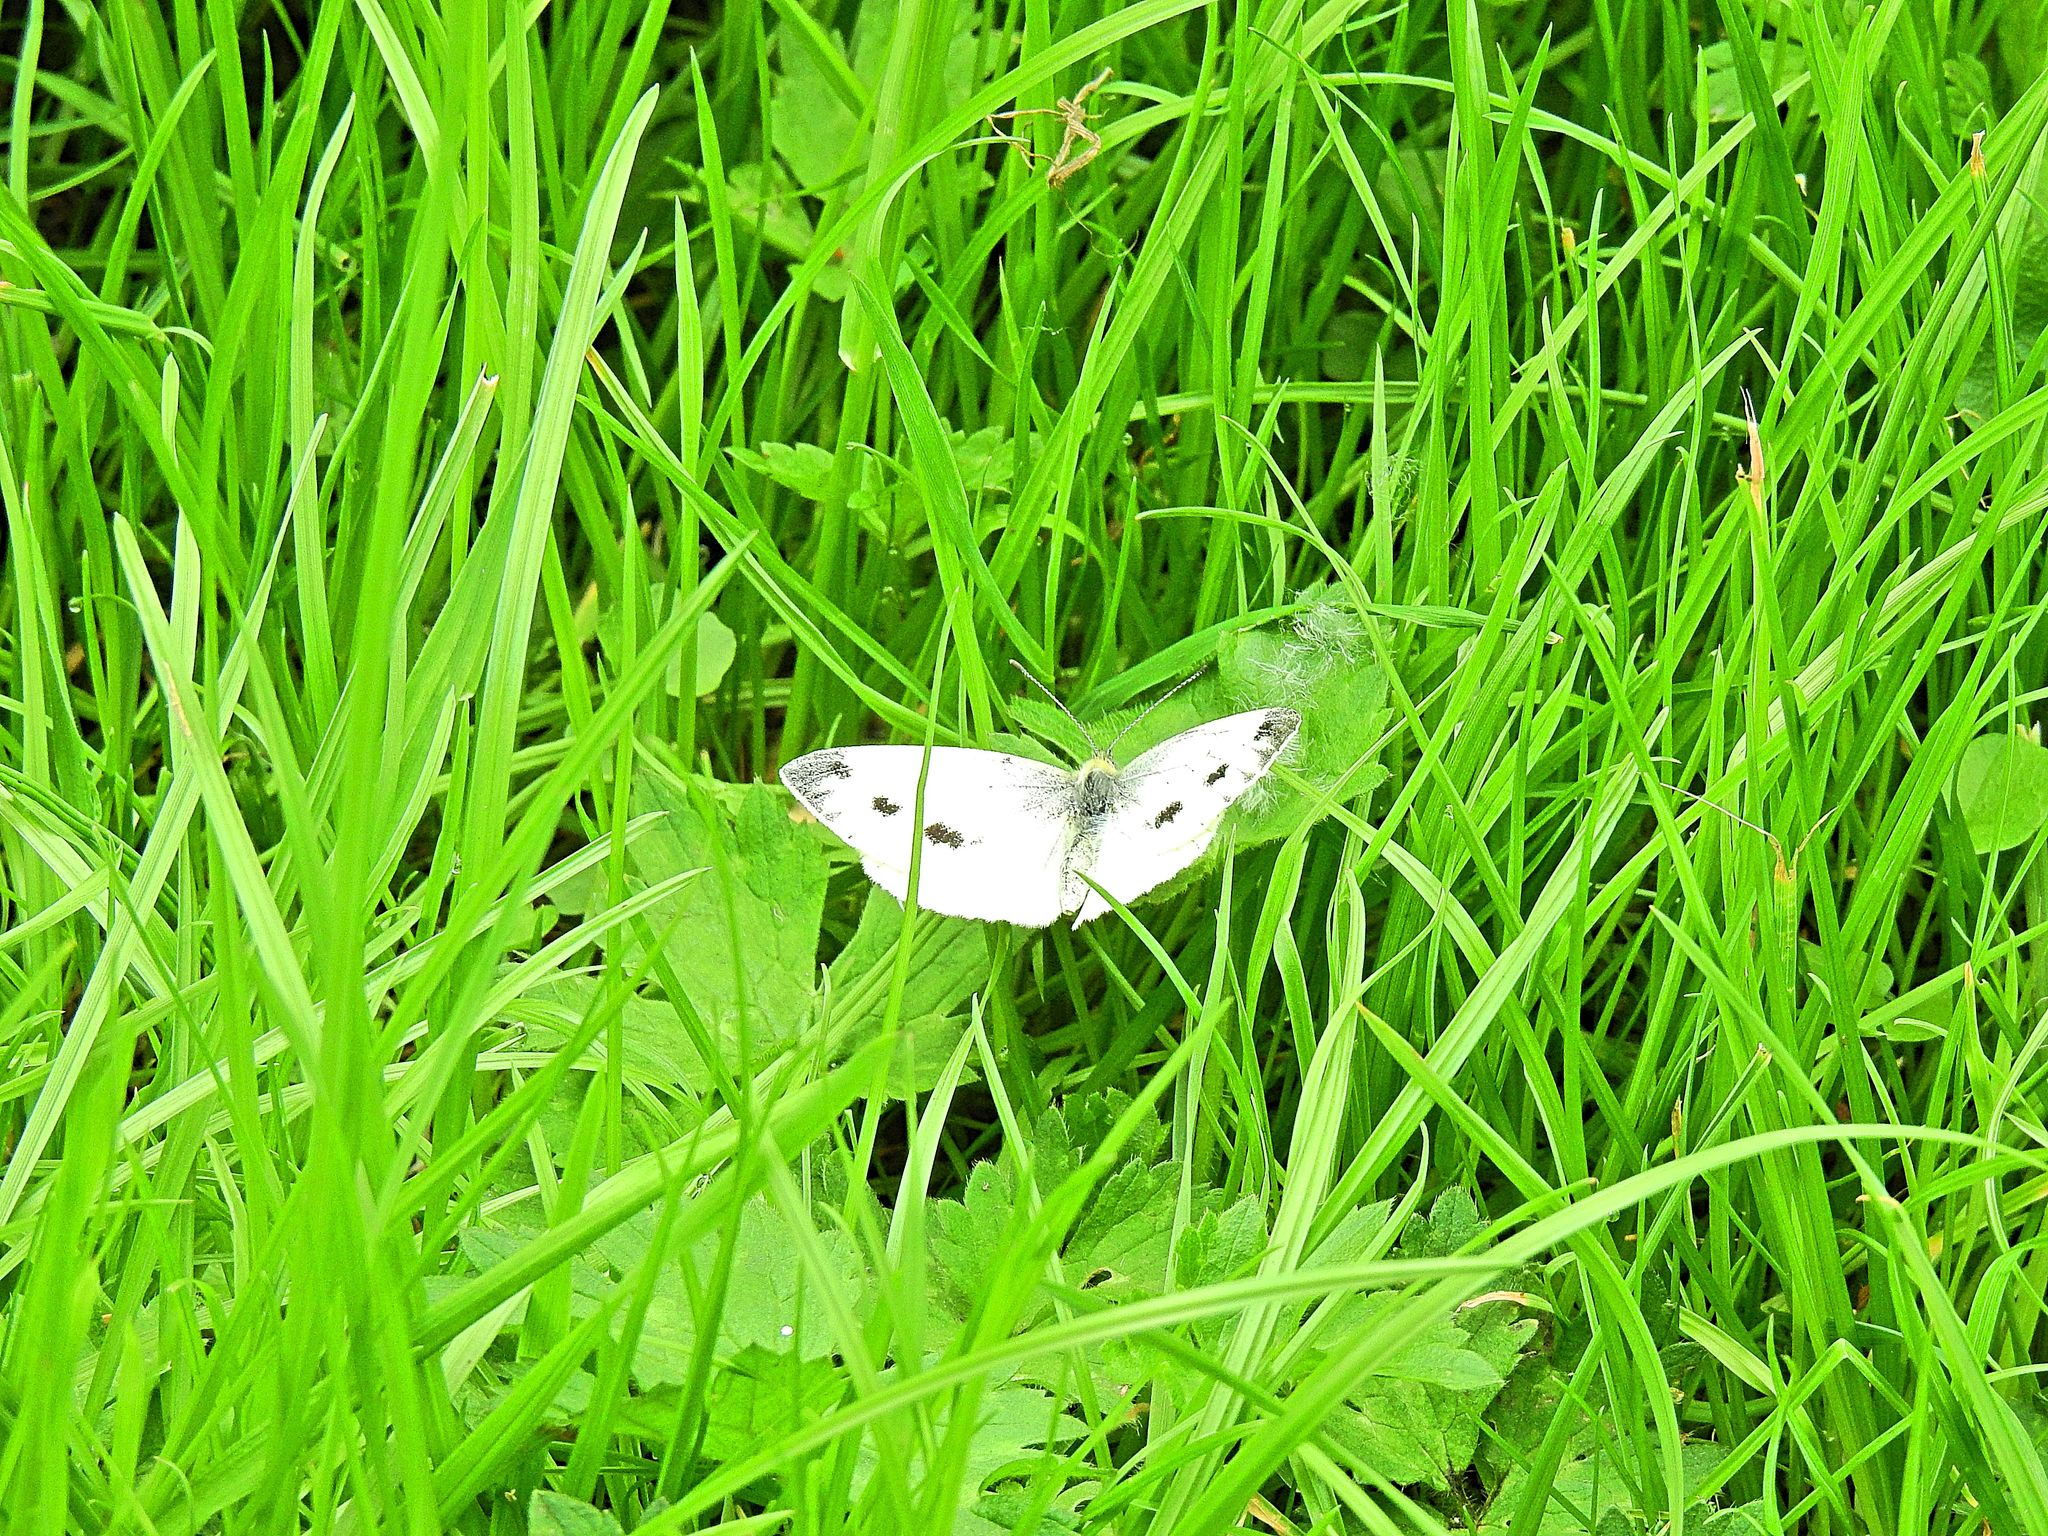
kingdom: Animalia
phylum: Arthropoda
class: Insecta
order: Lepidoptera
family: Pieridae
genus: Pieris
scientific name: Pieris rapae
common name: Small white
